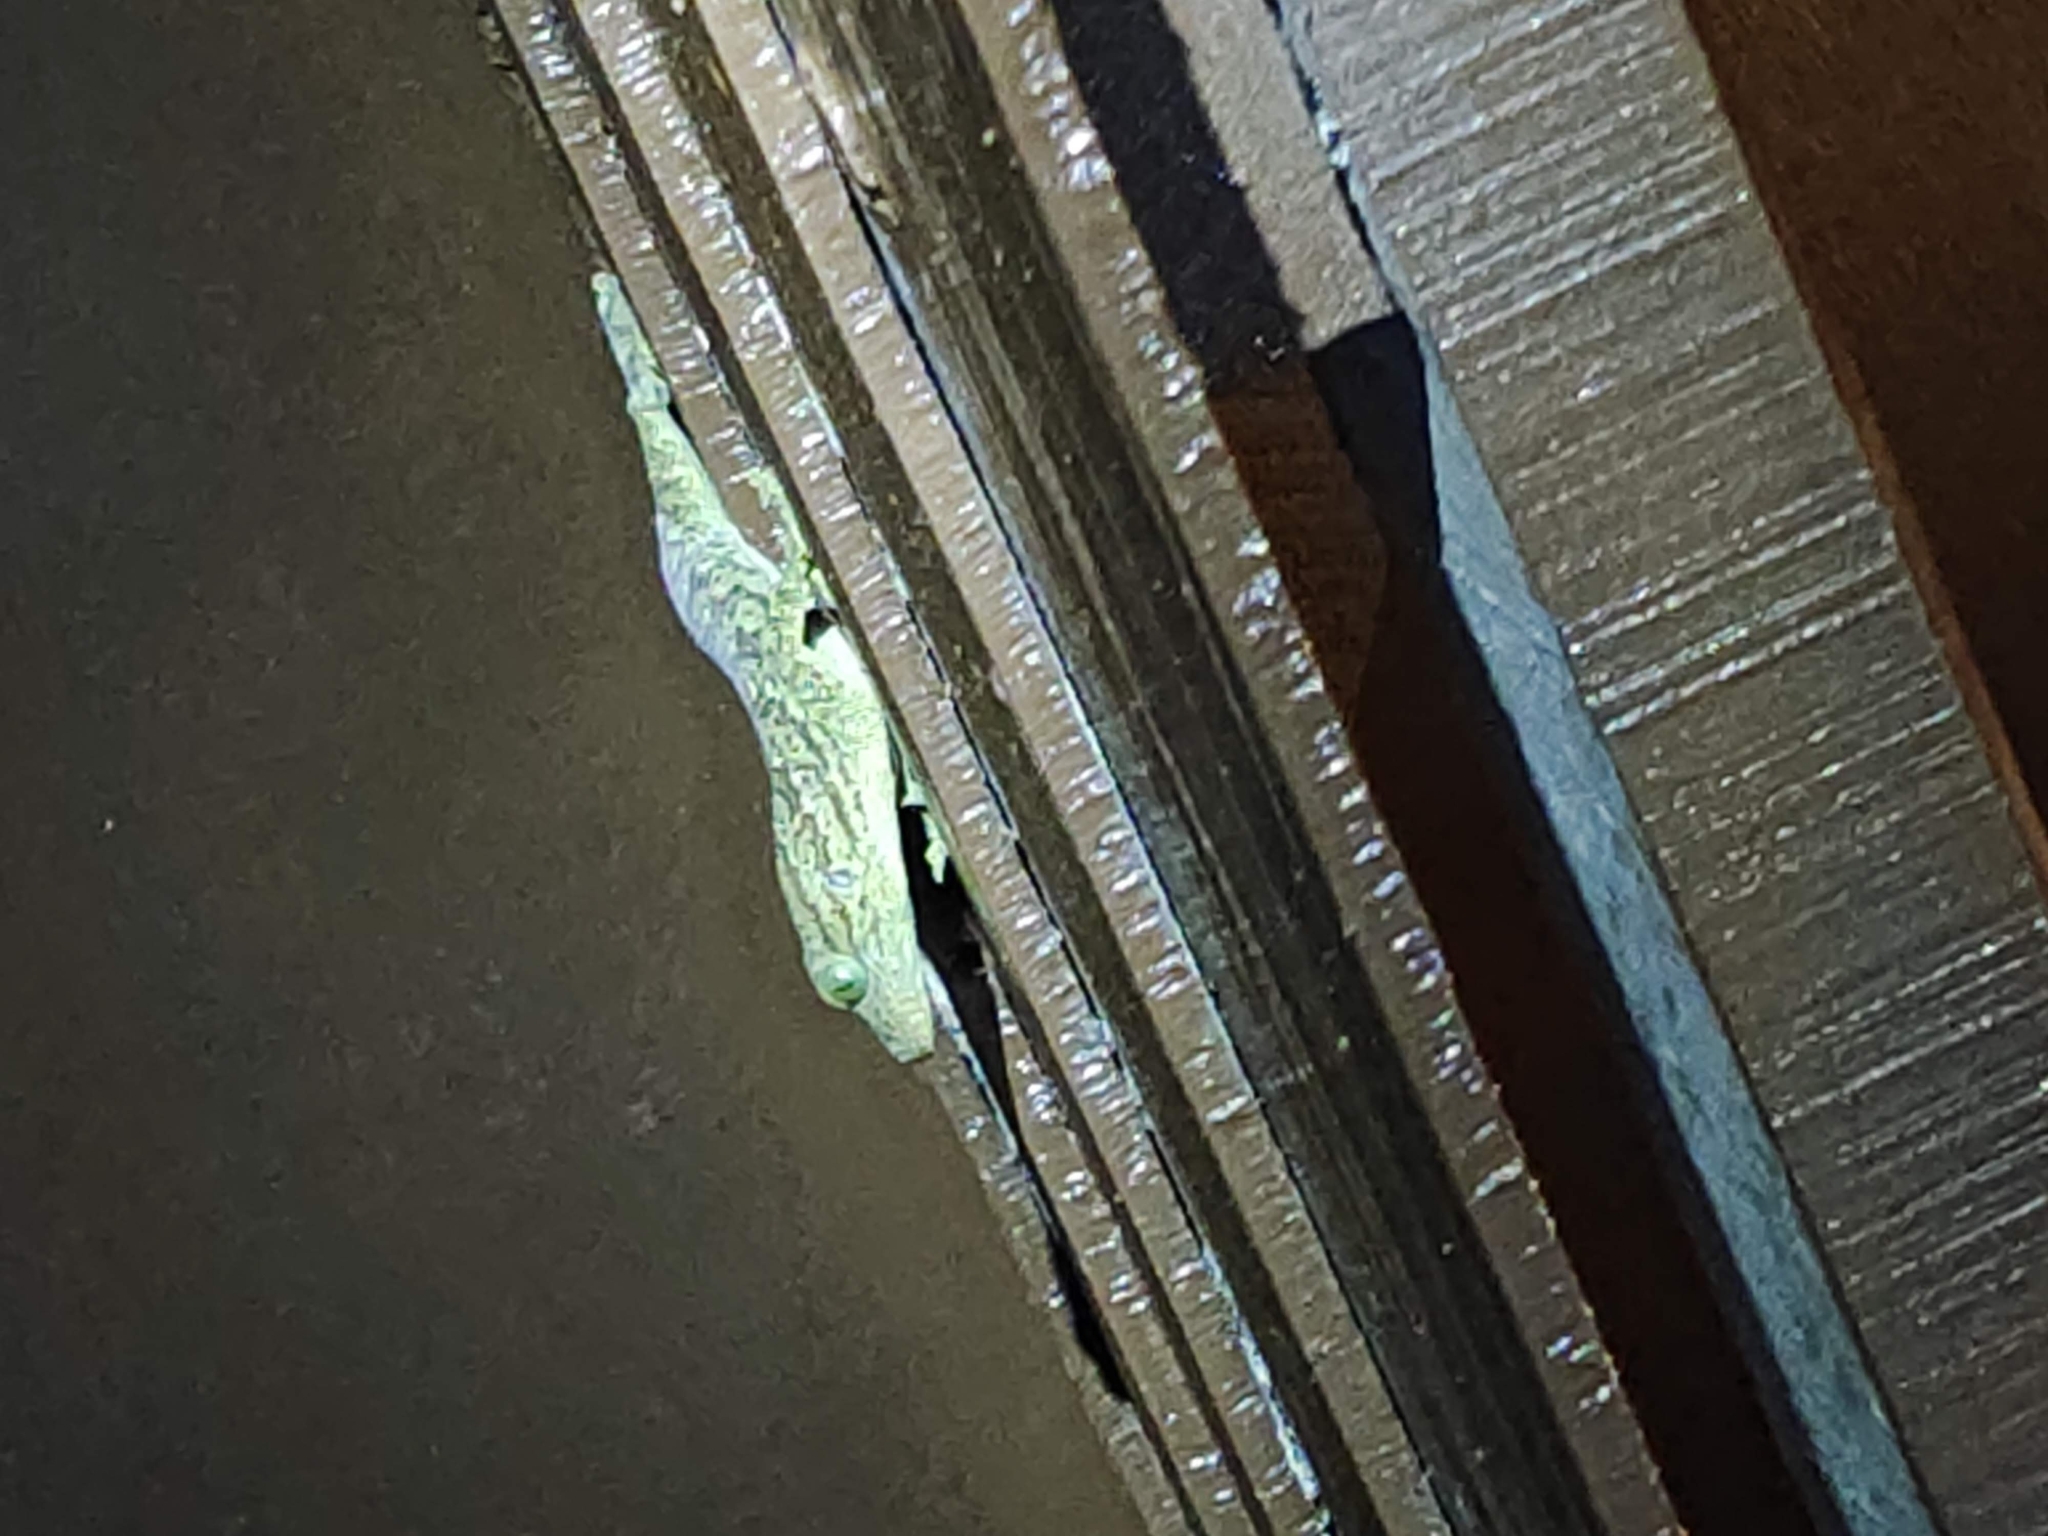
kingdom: Animalia
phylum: Chordata
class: Squamata
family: Gekkonidae
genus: Gekko
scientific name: Gekko smithii
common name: Large forest gecko
